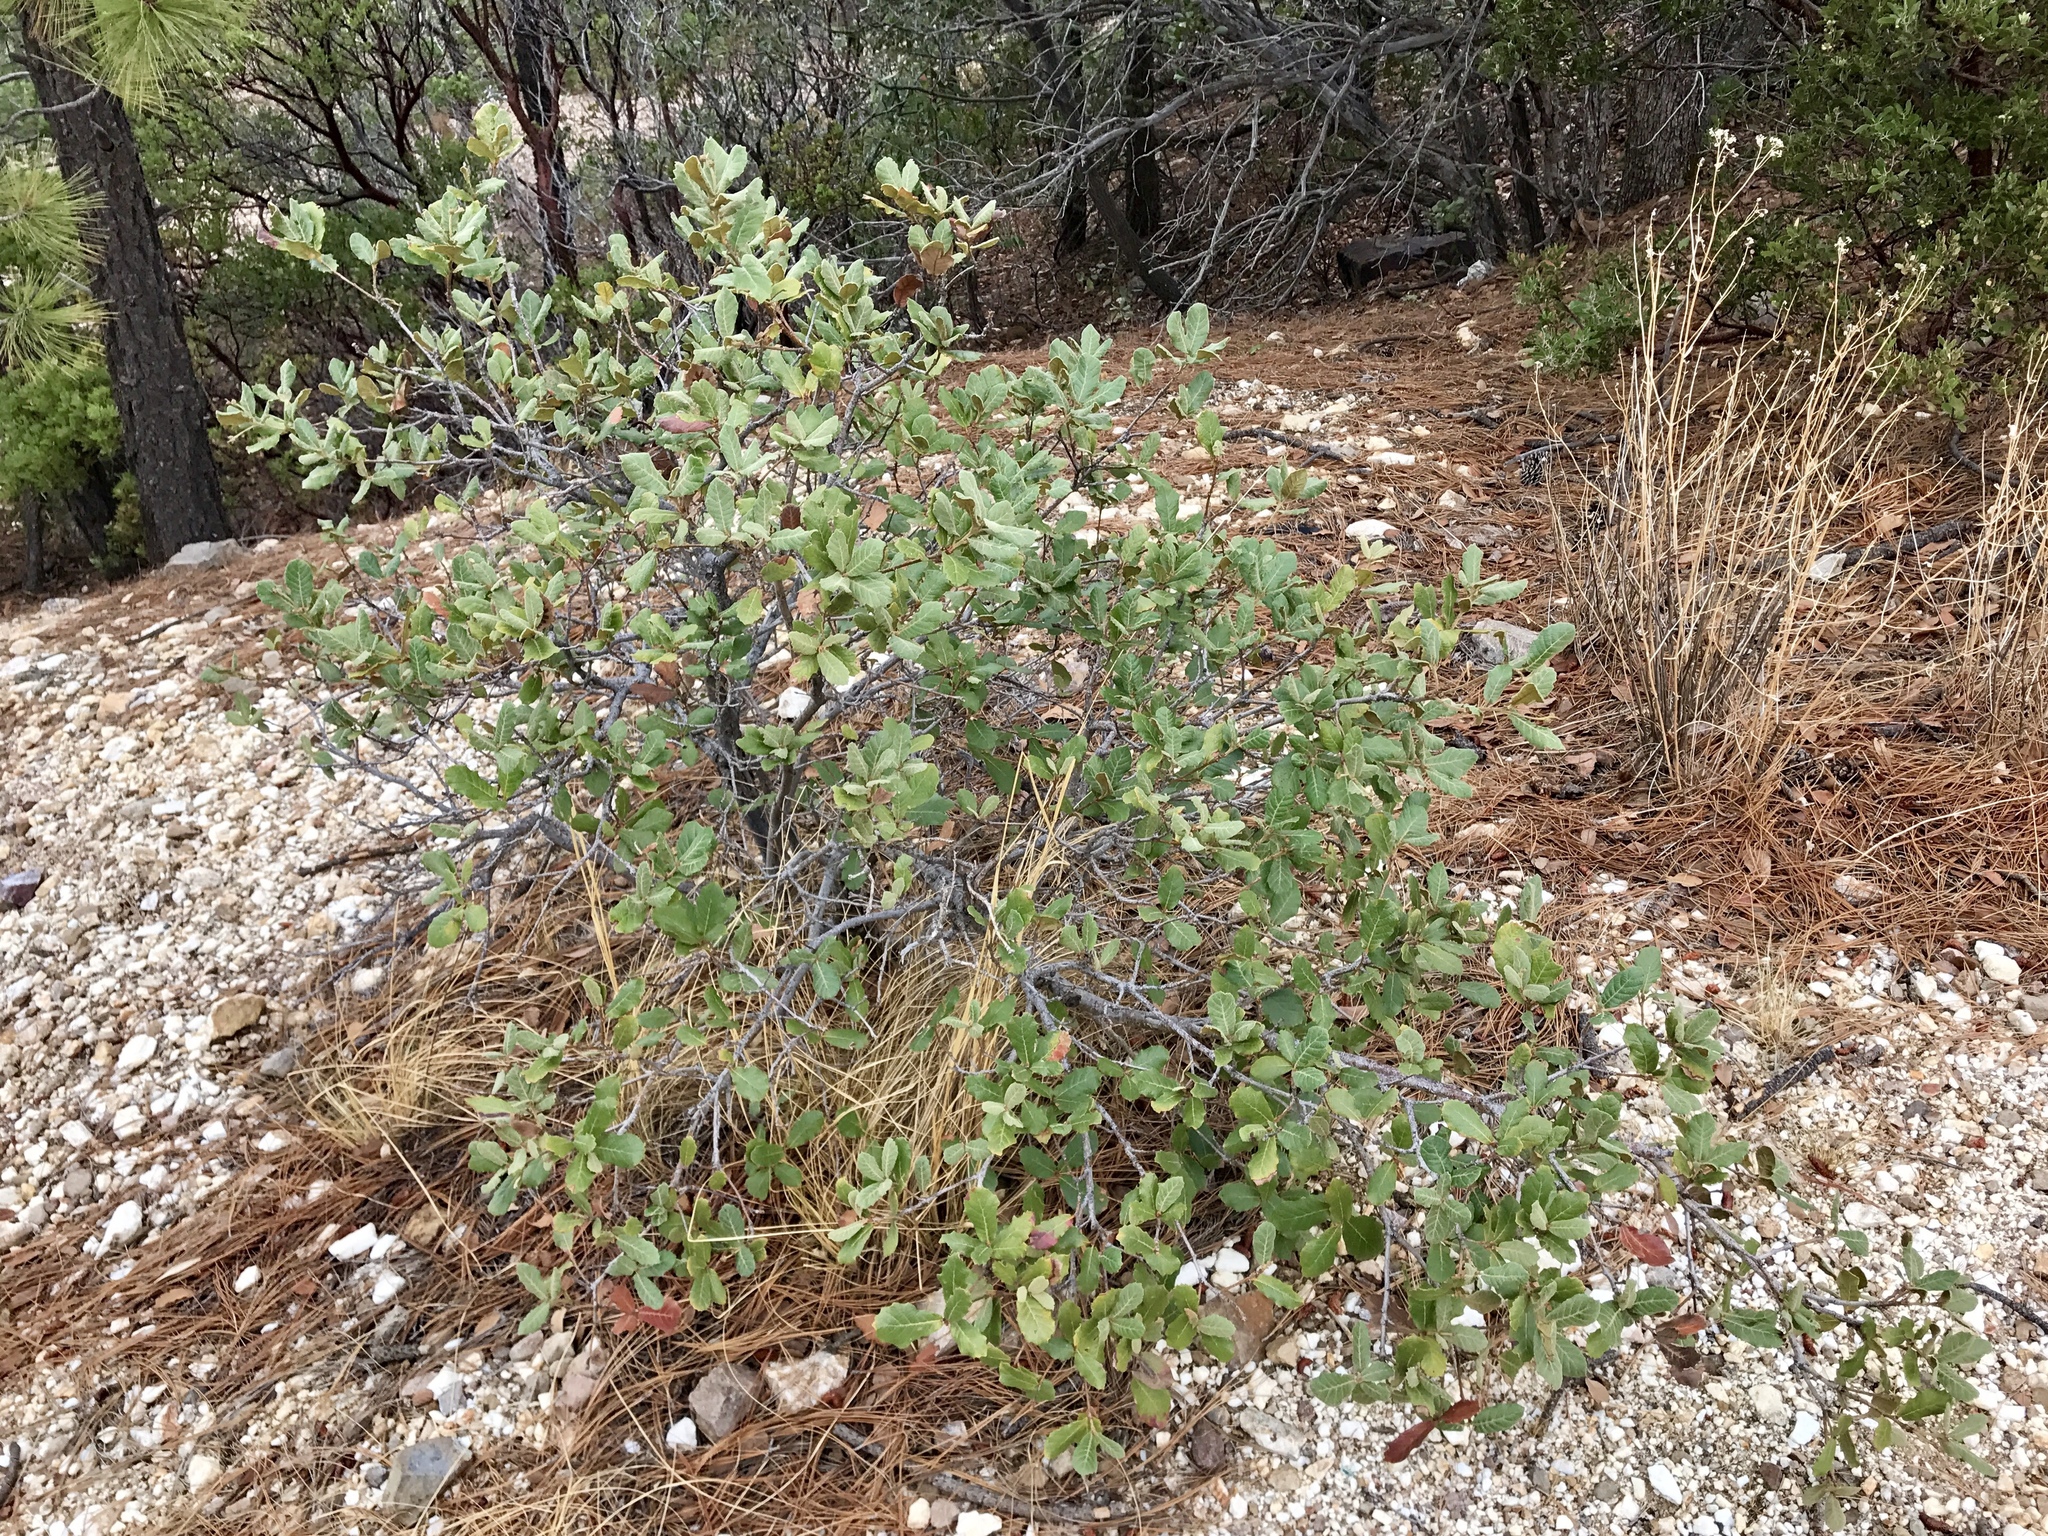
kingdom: Plantae
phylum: Tracheophyta
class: Magnoliopsida
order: Fagales
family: Fagaceae
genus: Quercus
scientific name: Quercus rugosa
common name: Netleaf oak
